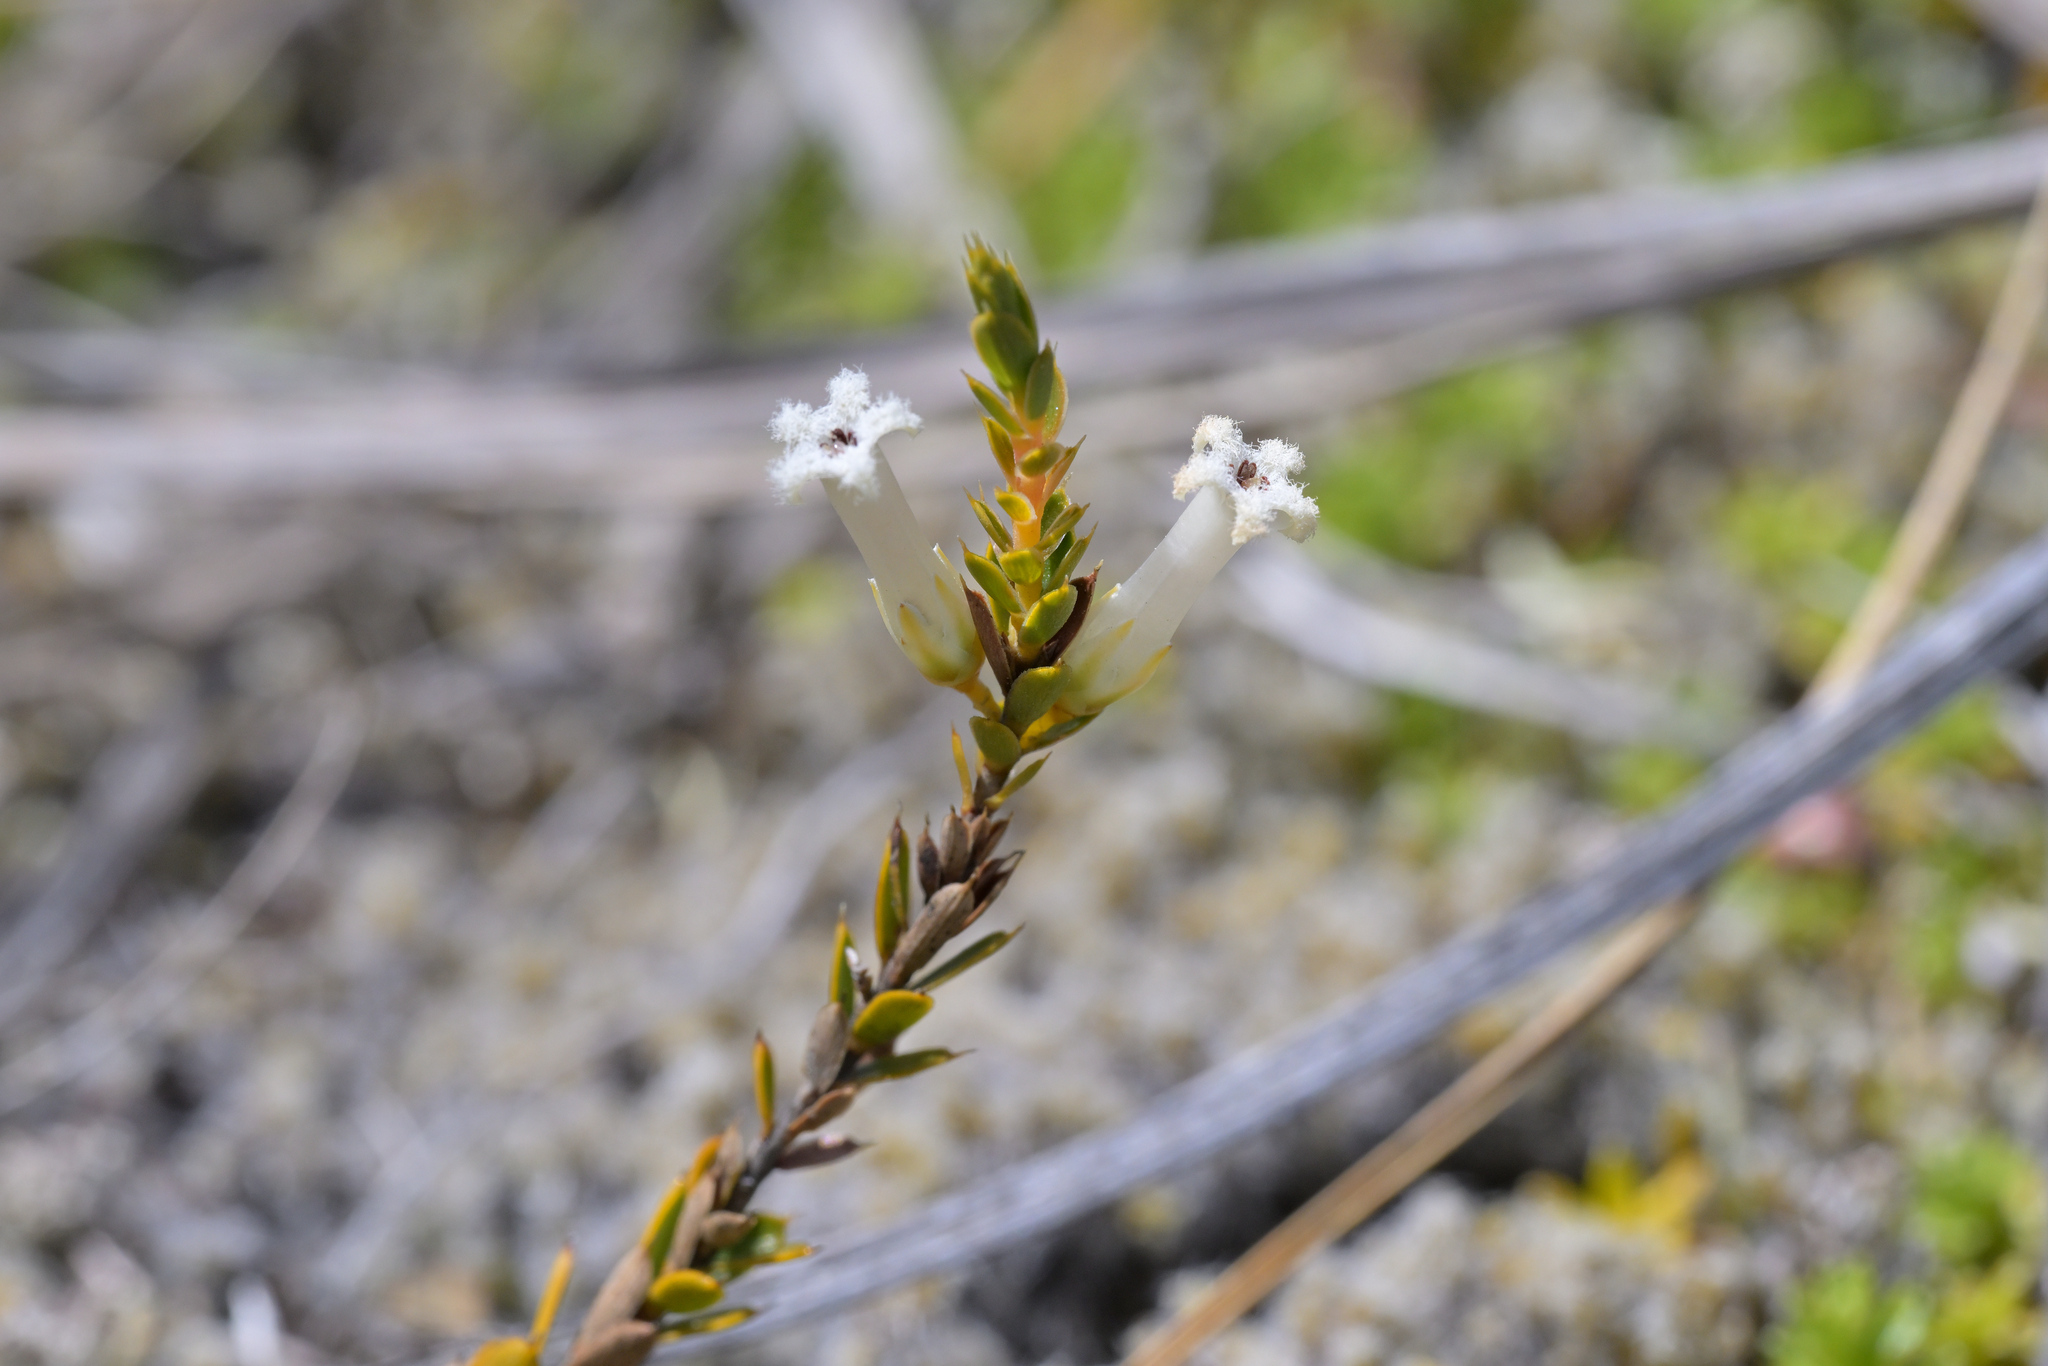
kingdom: Plantae
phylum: Tracheophyta
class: Magnoliopsida
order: Ericales
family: Ericaceae
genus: Styphelia
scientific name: Styphelia nesophila
